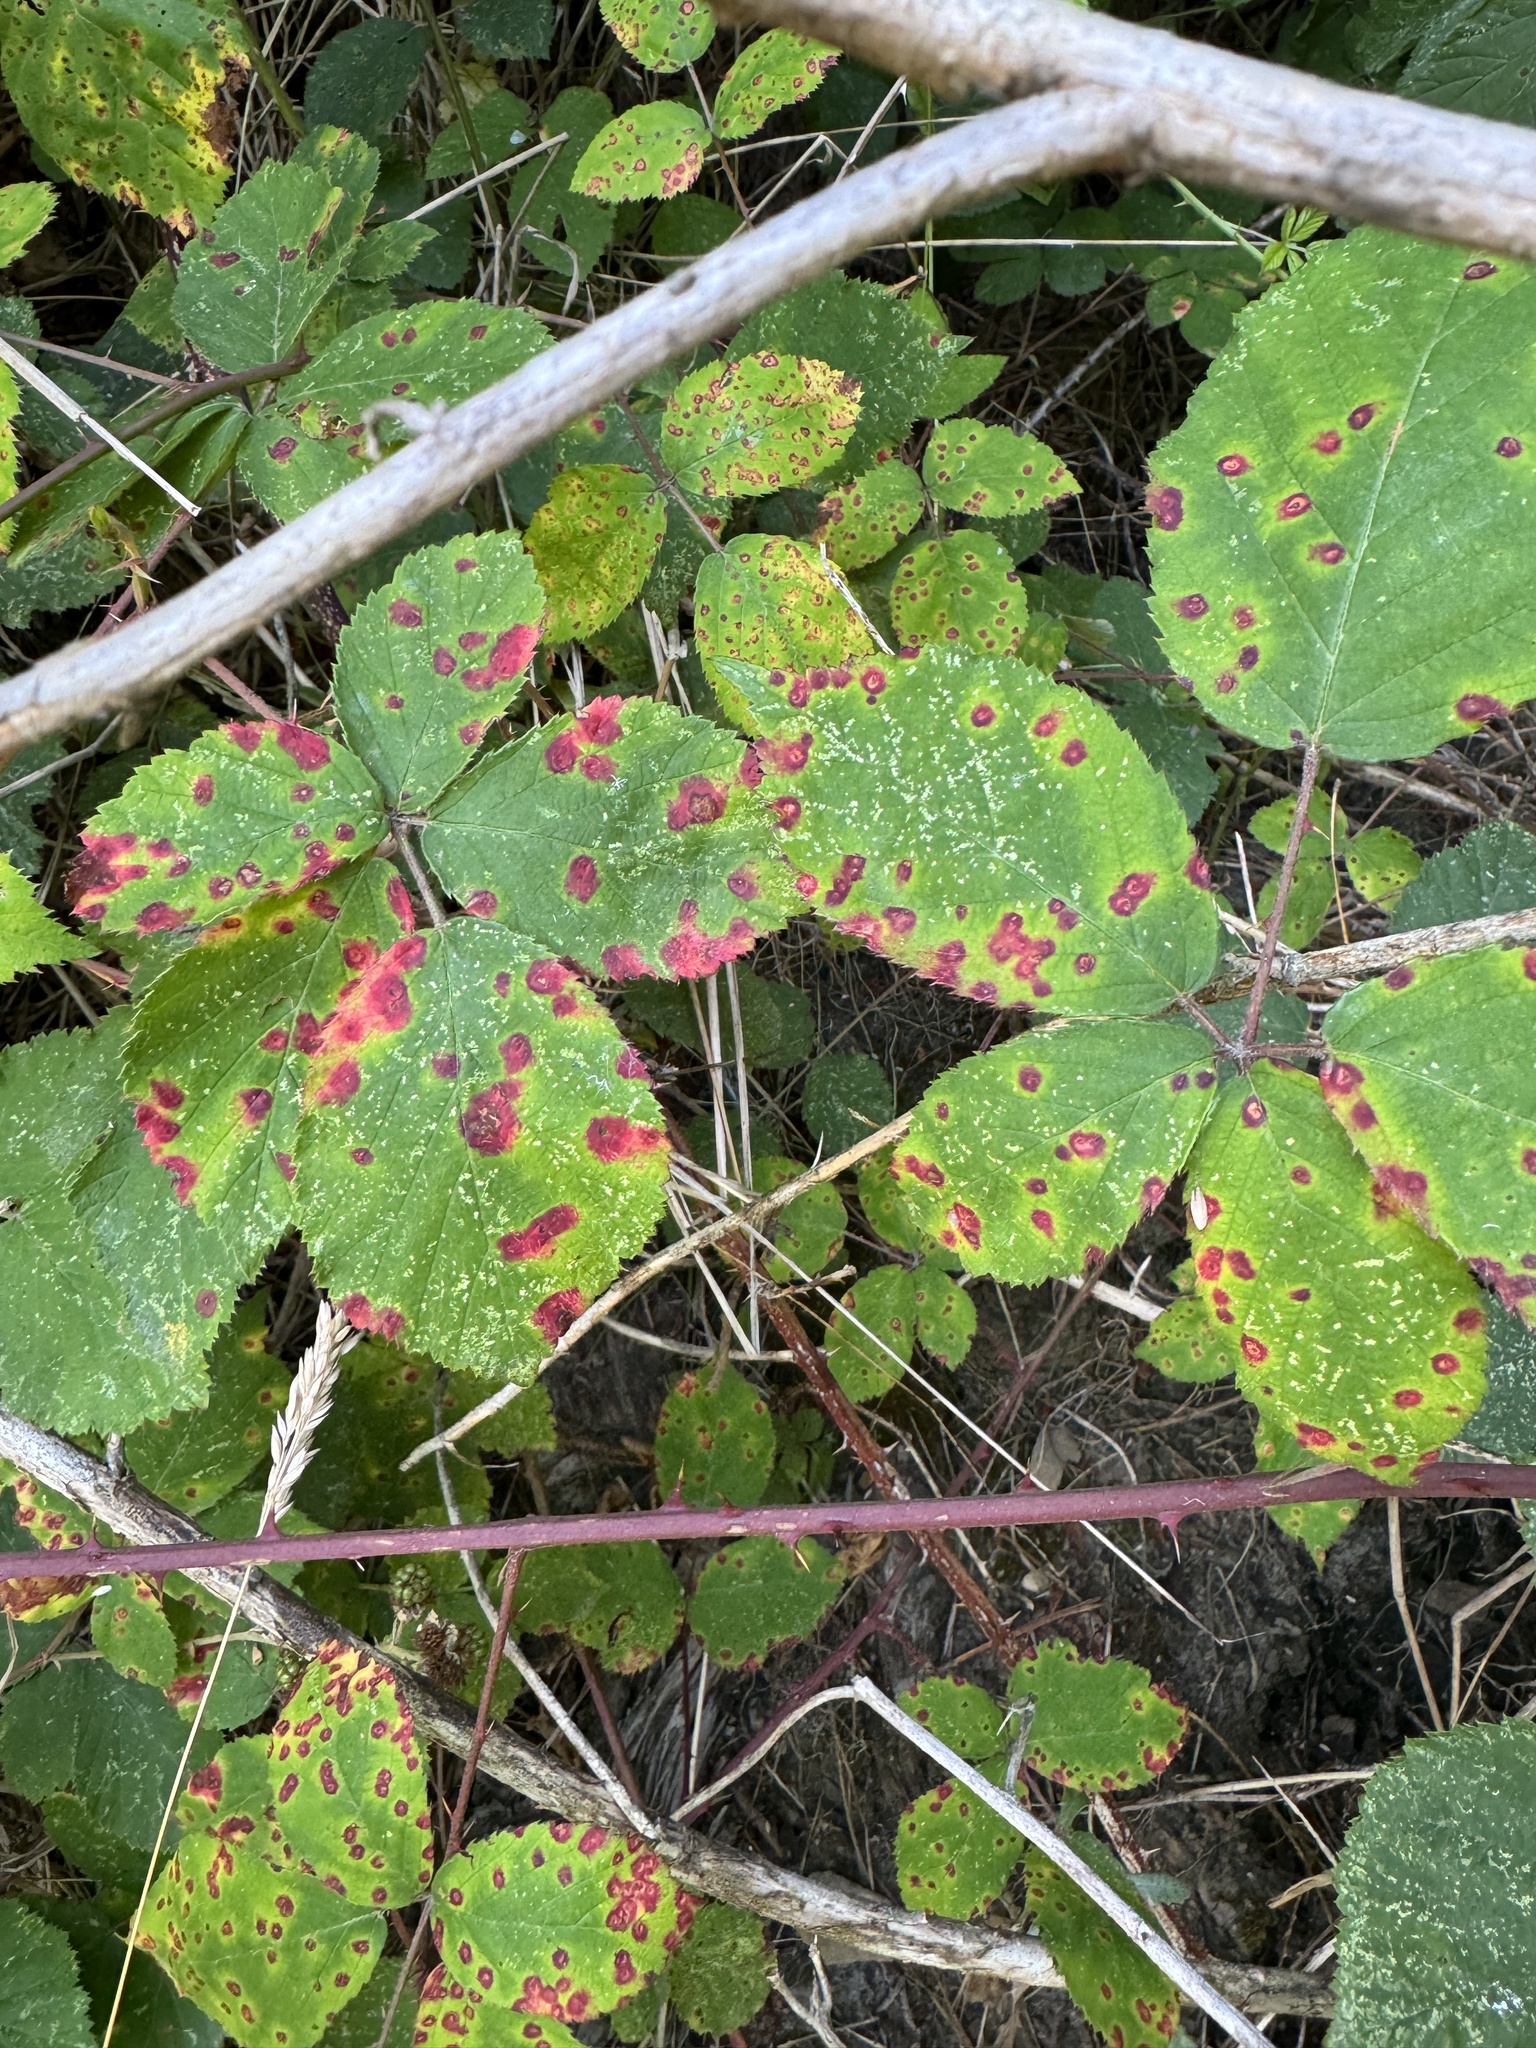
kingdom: Fungi
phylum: Basidiomycota
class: Pucciniomycetes
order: Pucciniales
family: Phragmidiaceae
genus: Phragmidium
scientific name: Phragmidium violaceum
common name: Violet bramble rust
